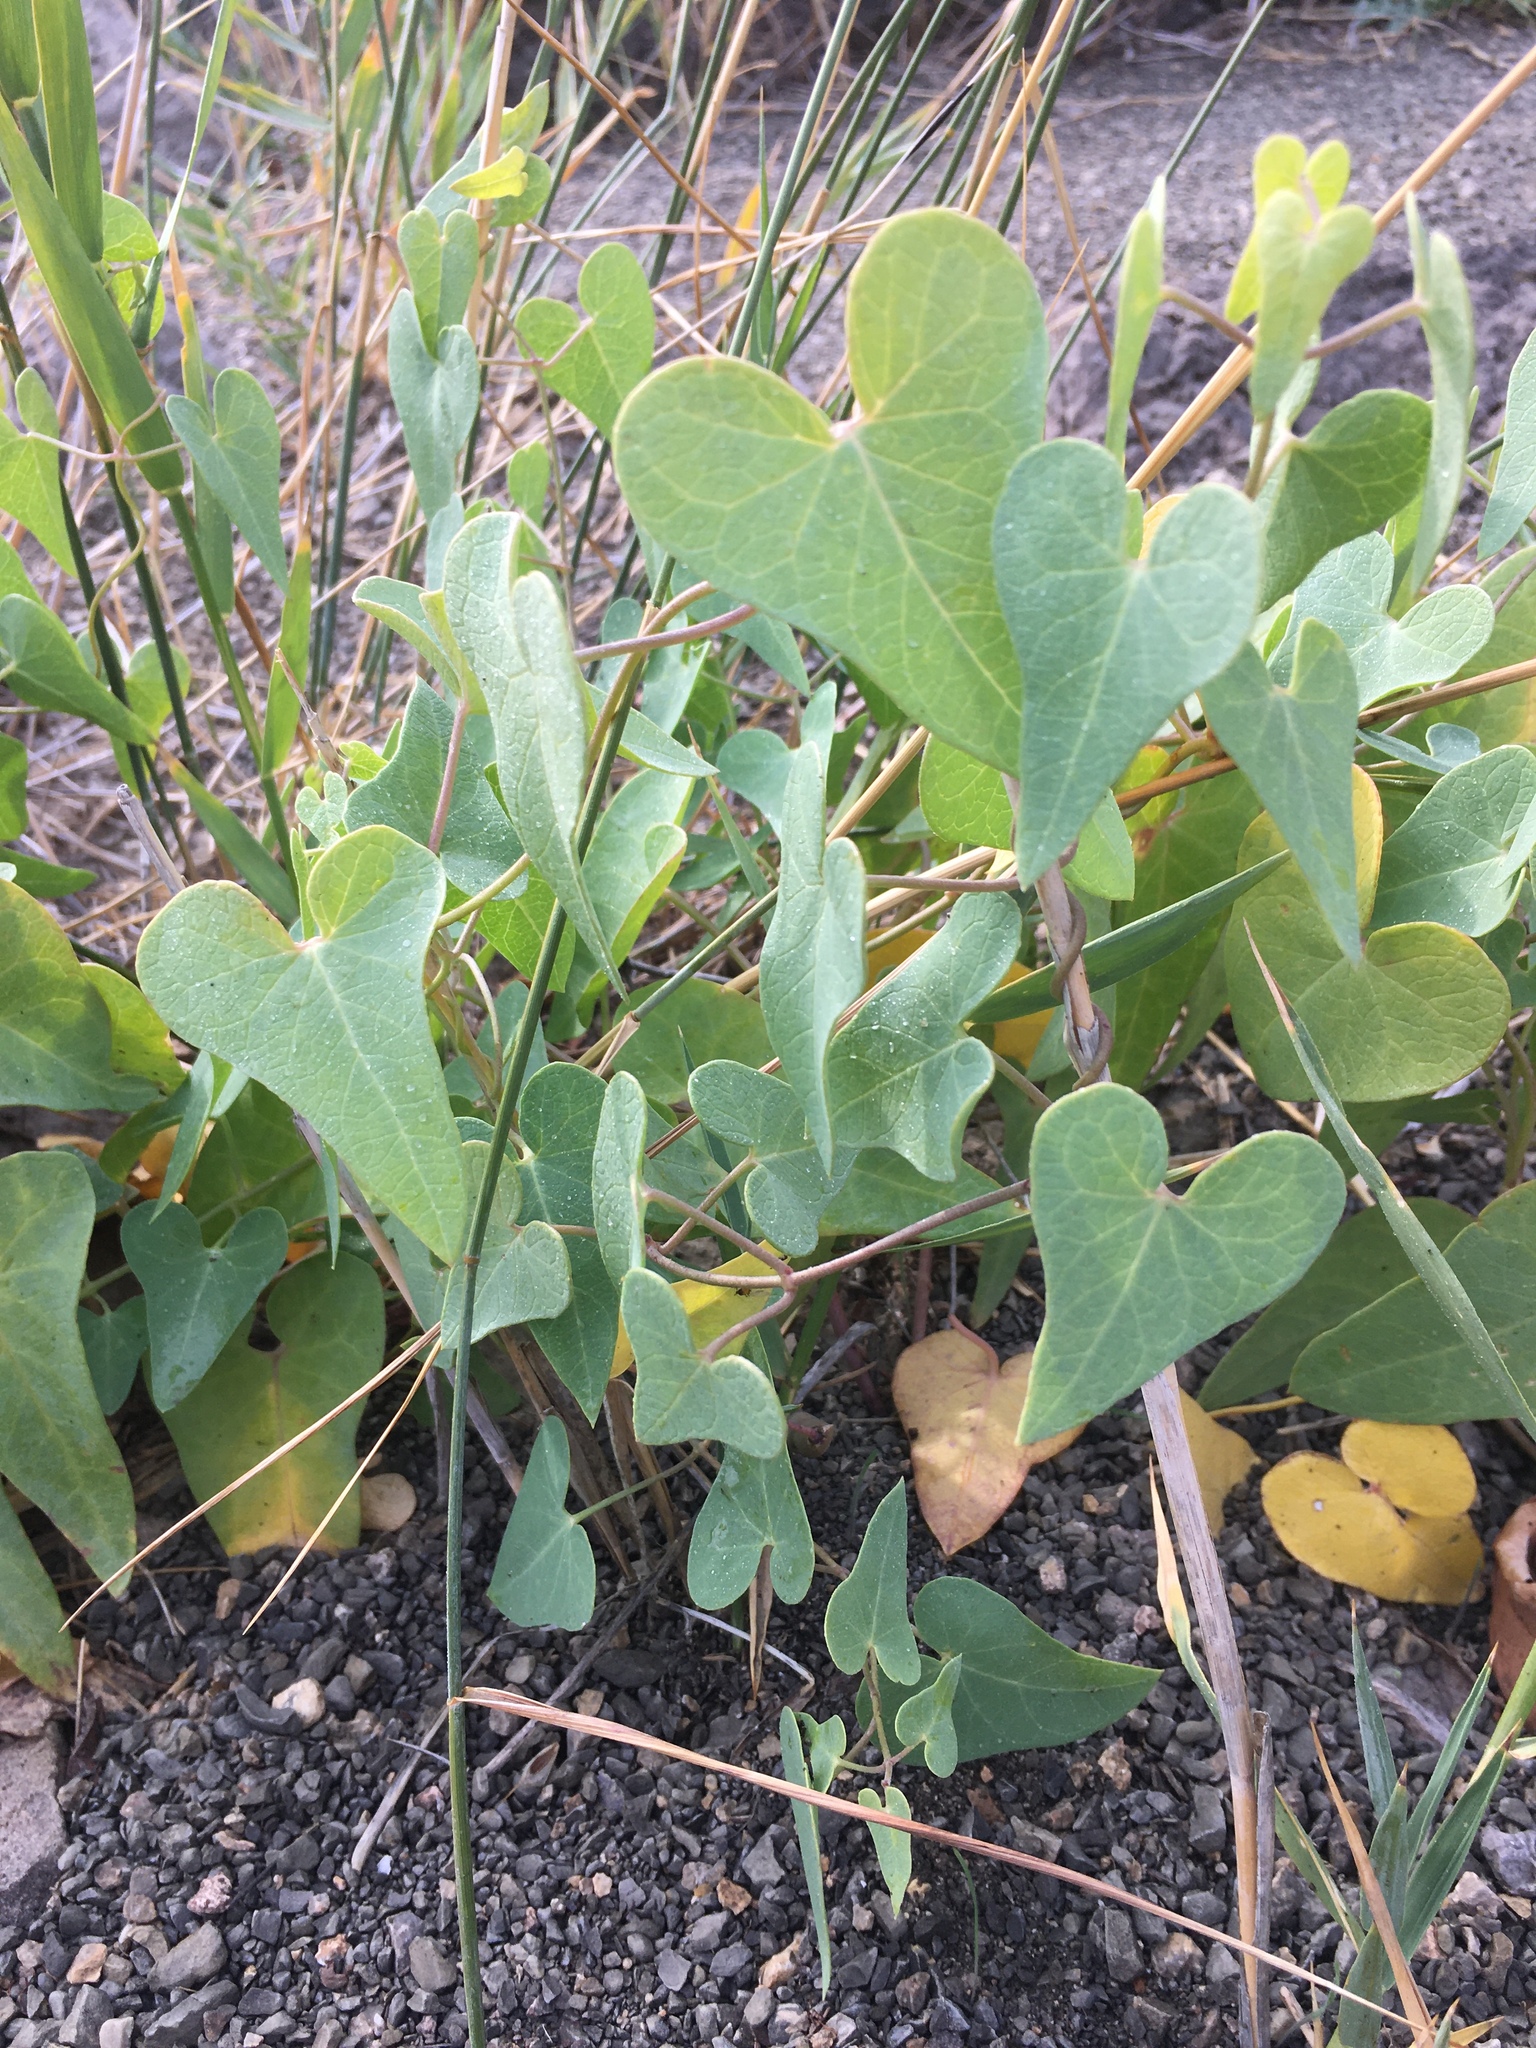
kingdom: Plantae
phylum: Tracheophyta
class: Magnoliopsida
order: Gentianales
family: Apocynaceae
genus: Cynanchum
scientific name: Cynanchum acutum
